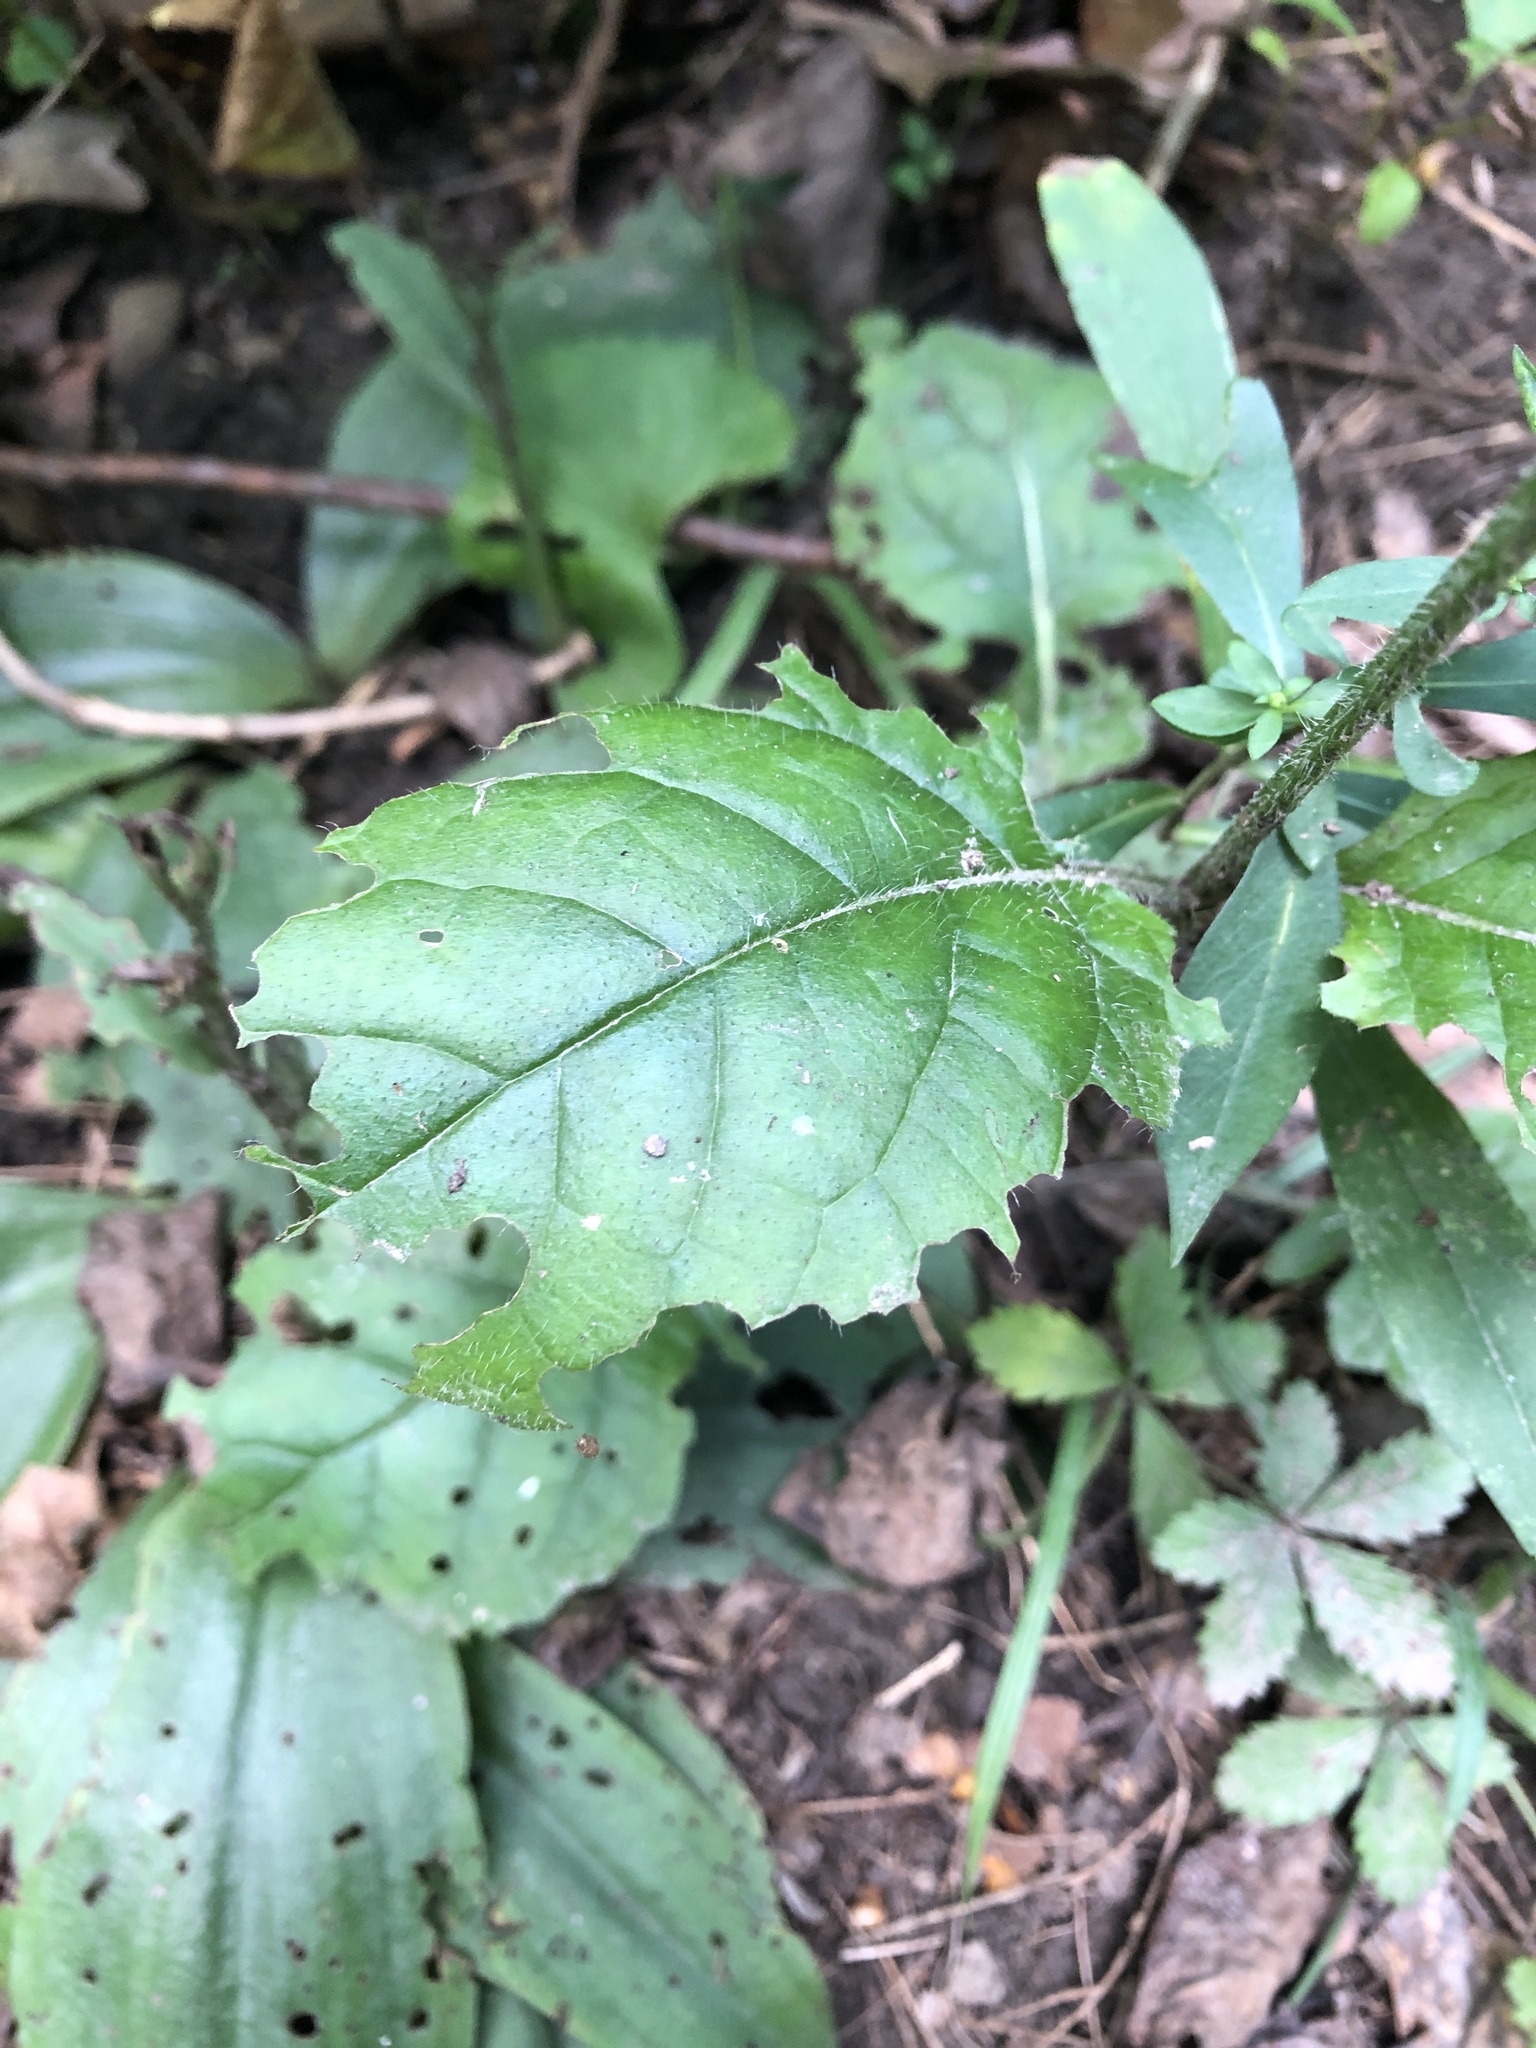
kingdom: Plantae
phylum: Tracheophyta
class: Magnoliopsida
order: Lamiales
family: Lamiaceae
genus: Salvia
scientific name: Salvia lyrata
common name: Cancerweed
